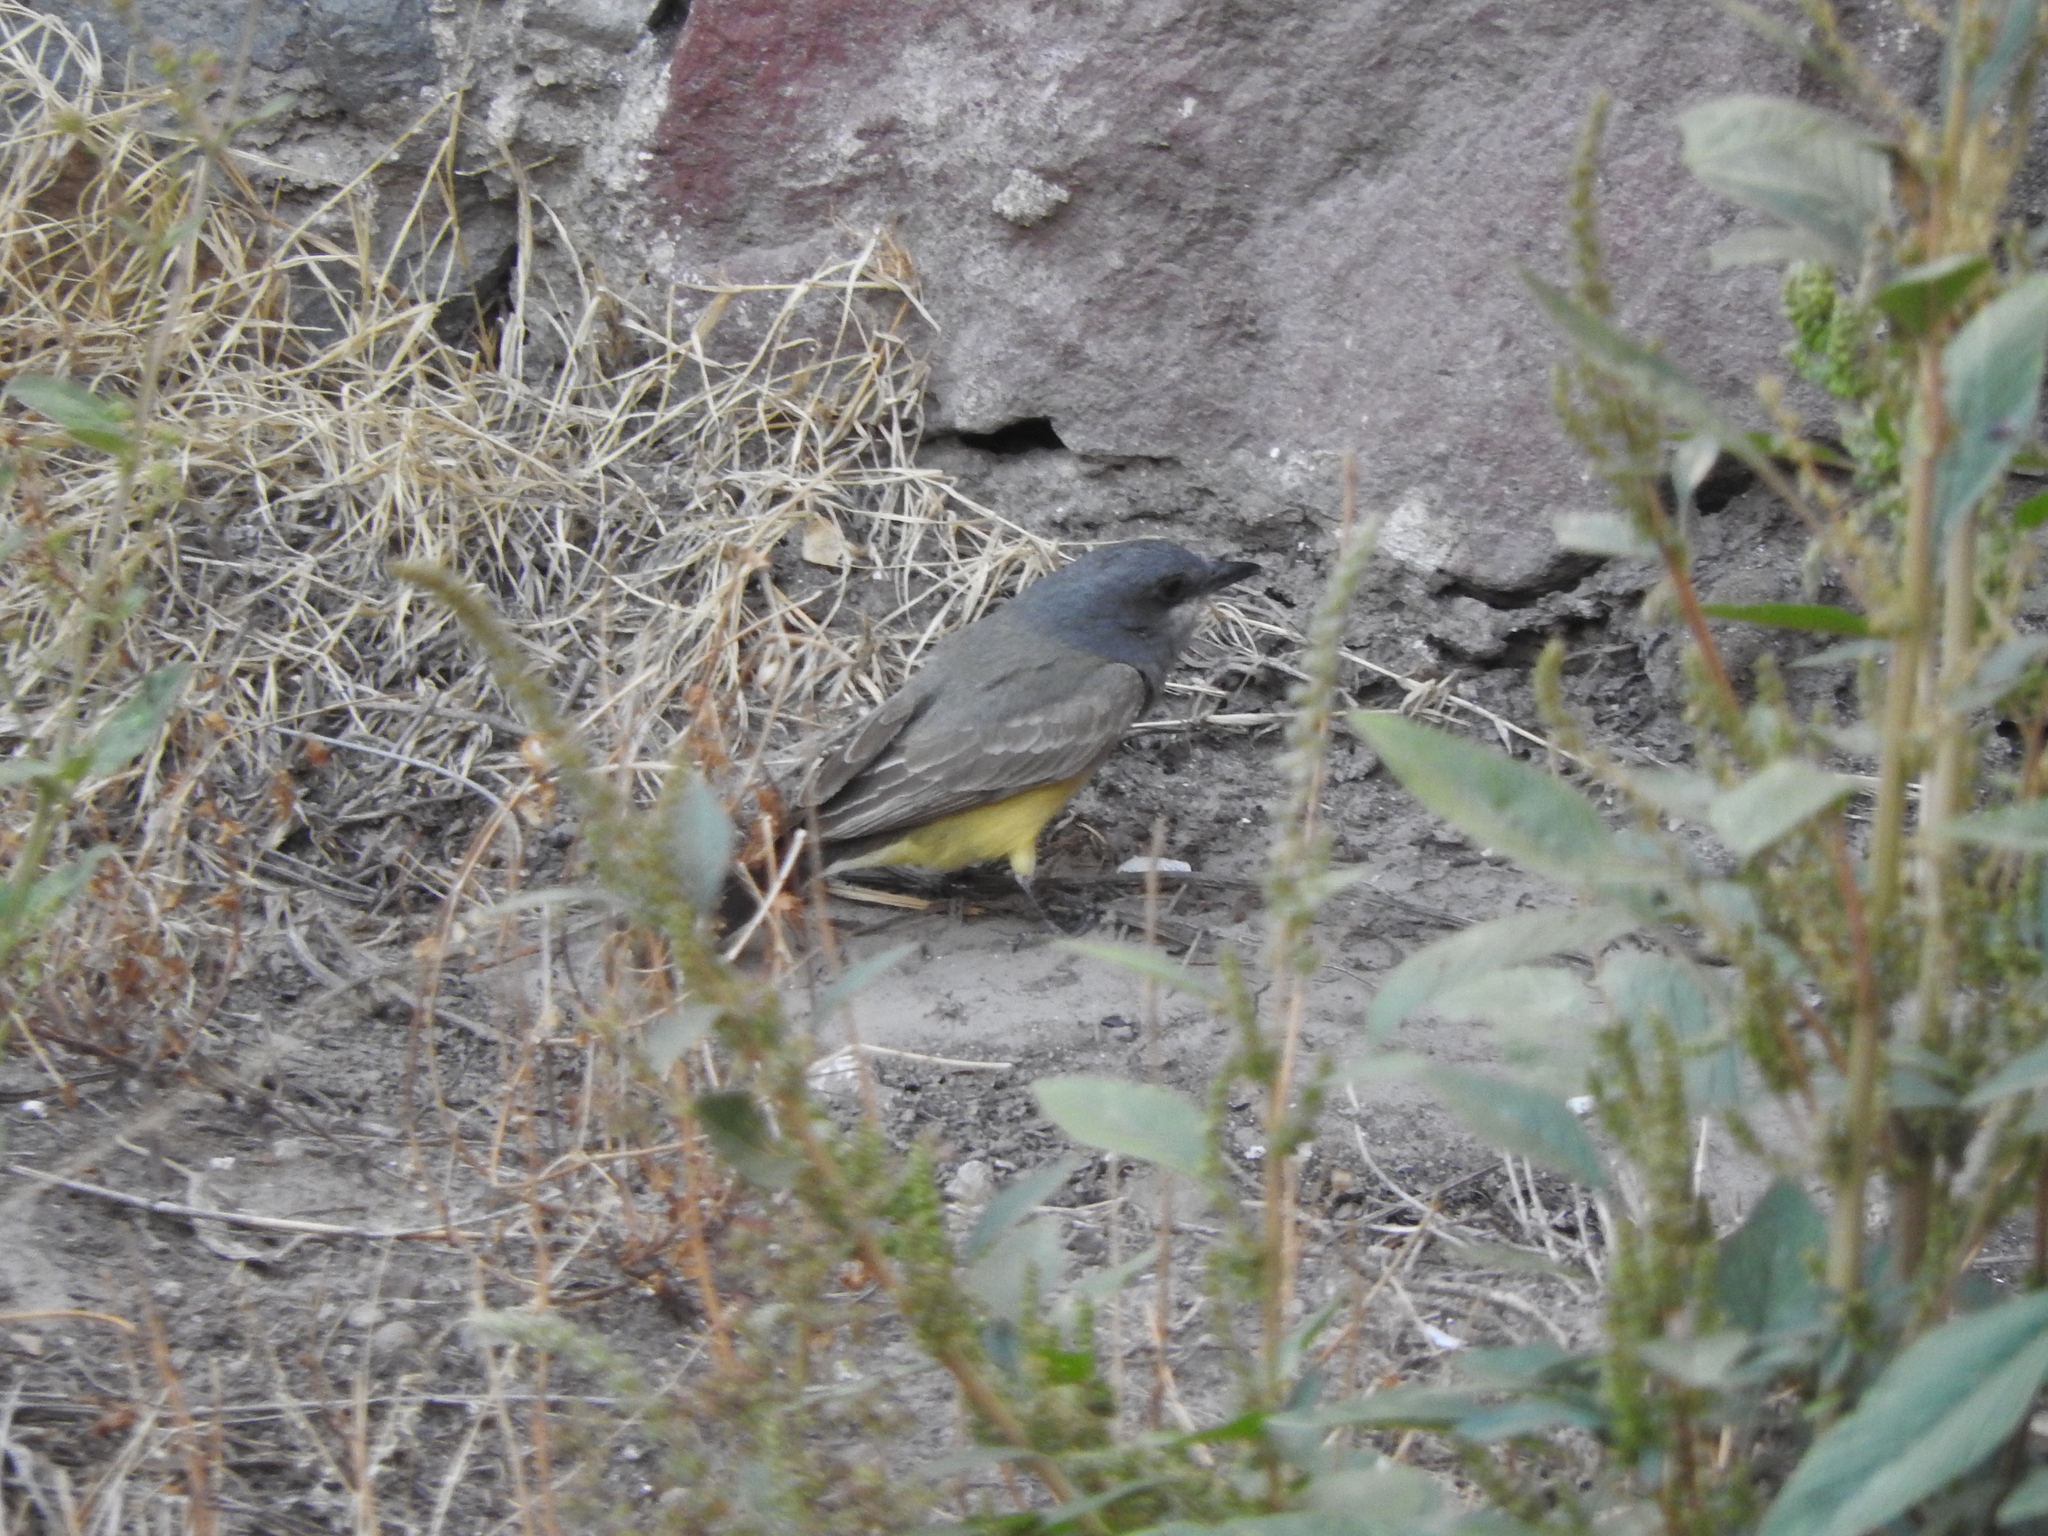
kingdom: Animalia
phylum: Chordata
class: Aves
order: Passeriformes
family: Tyrannidae
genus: Tyrannus
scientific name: Tyrannus vociferans
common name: Cassin's kingbird
